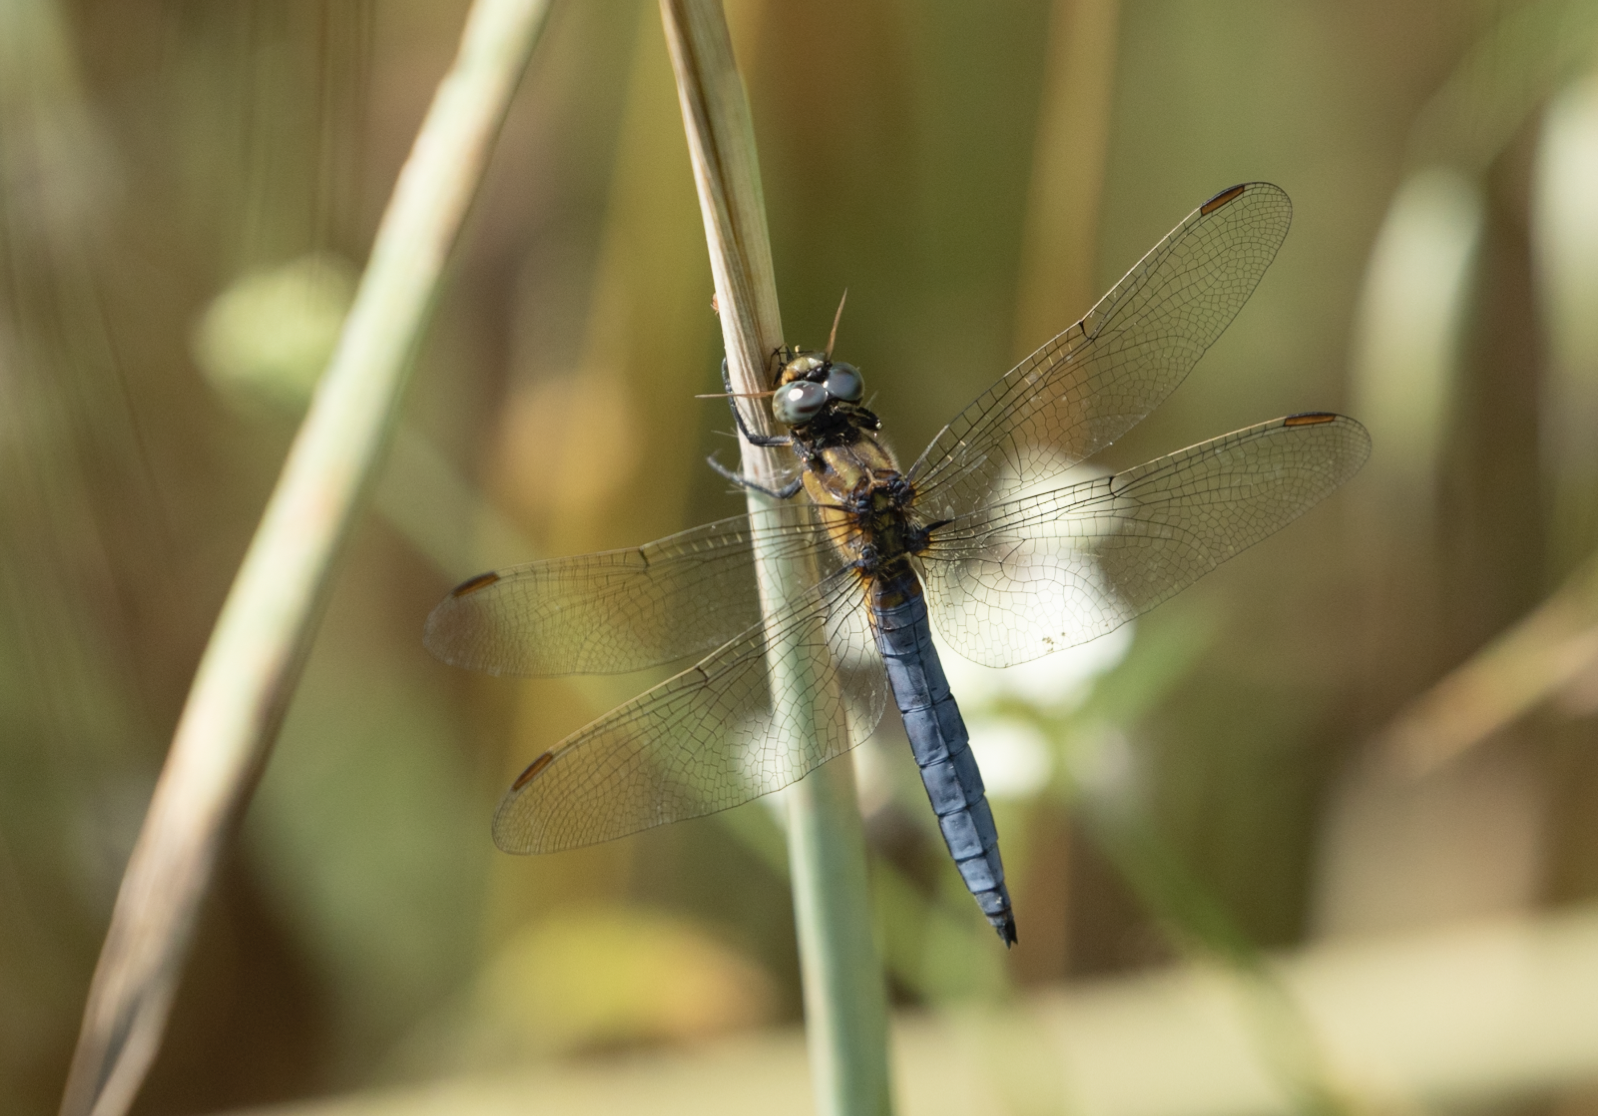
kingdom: Animalia
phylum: Arthropoda
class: Insecta
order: Odonata
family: Libellulidae
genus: Orthetrum
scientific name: Orthetrum coerulescens
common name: Keeled skimmer
